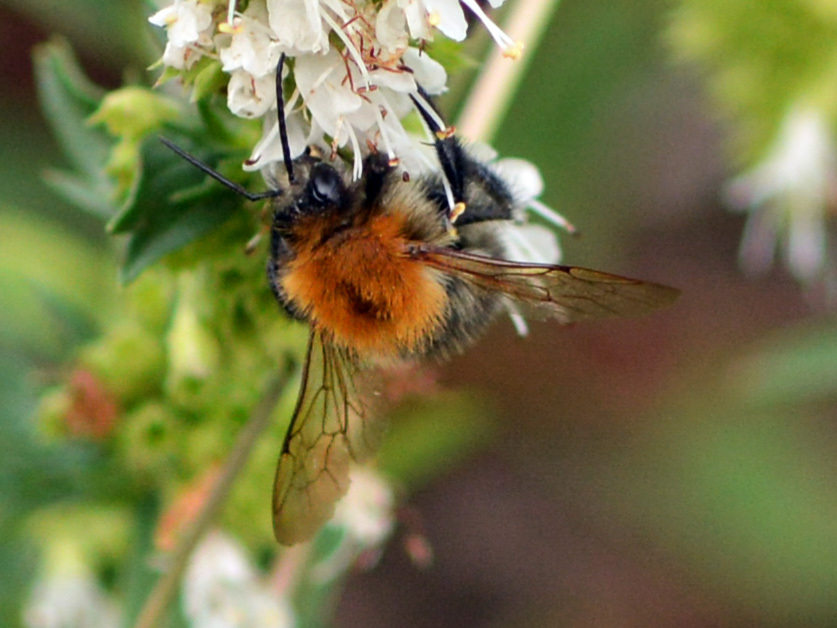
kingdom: Animalia
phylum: Arthropoda
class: Insecta
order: Hymenoptera
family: Apidae
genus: Bombus
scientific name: Bombus pascuorum
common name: Common carder bee
